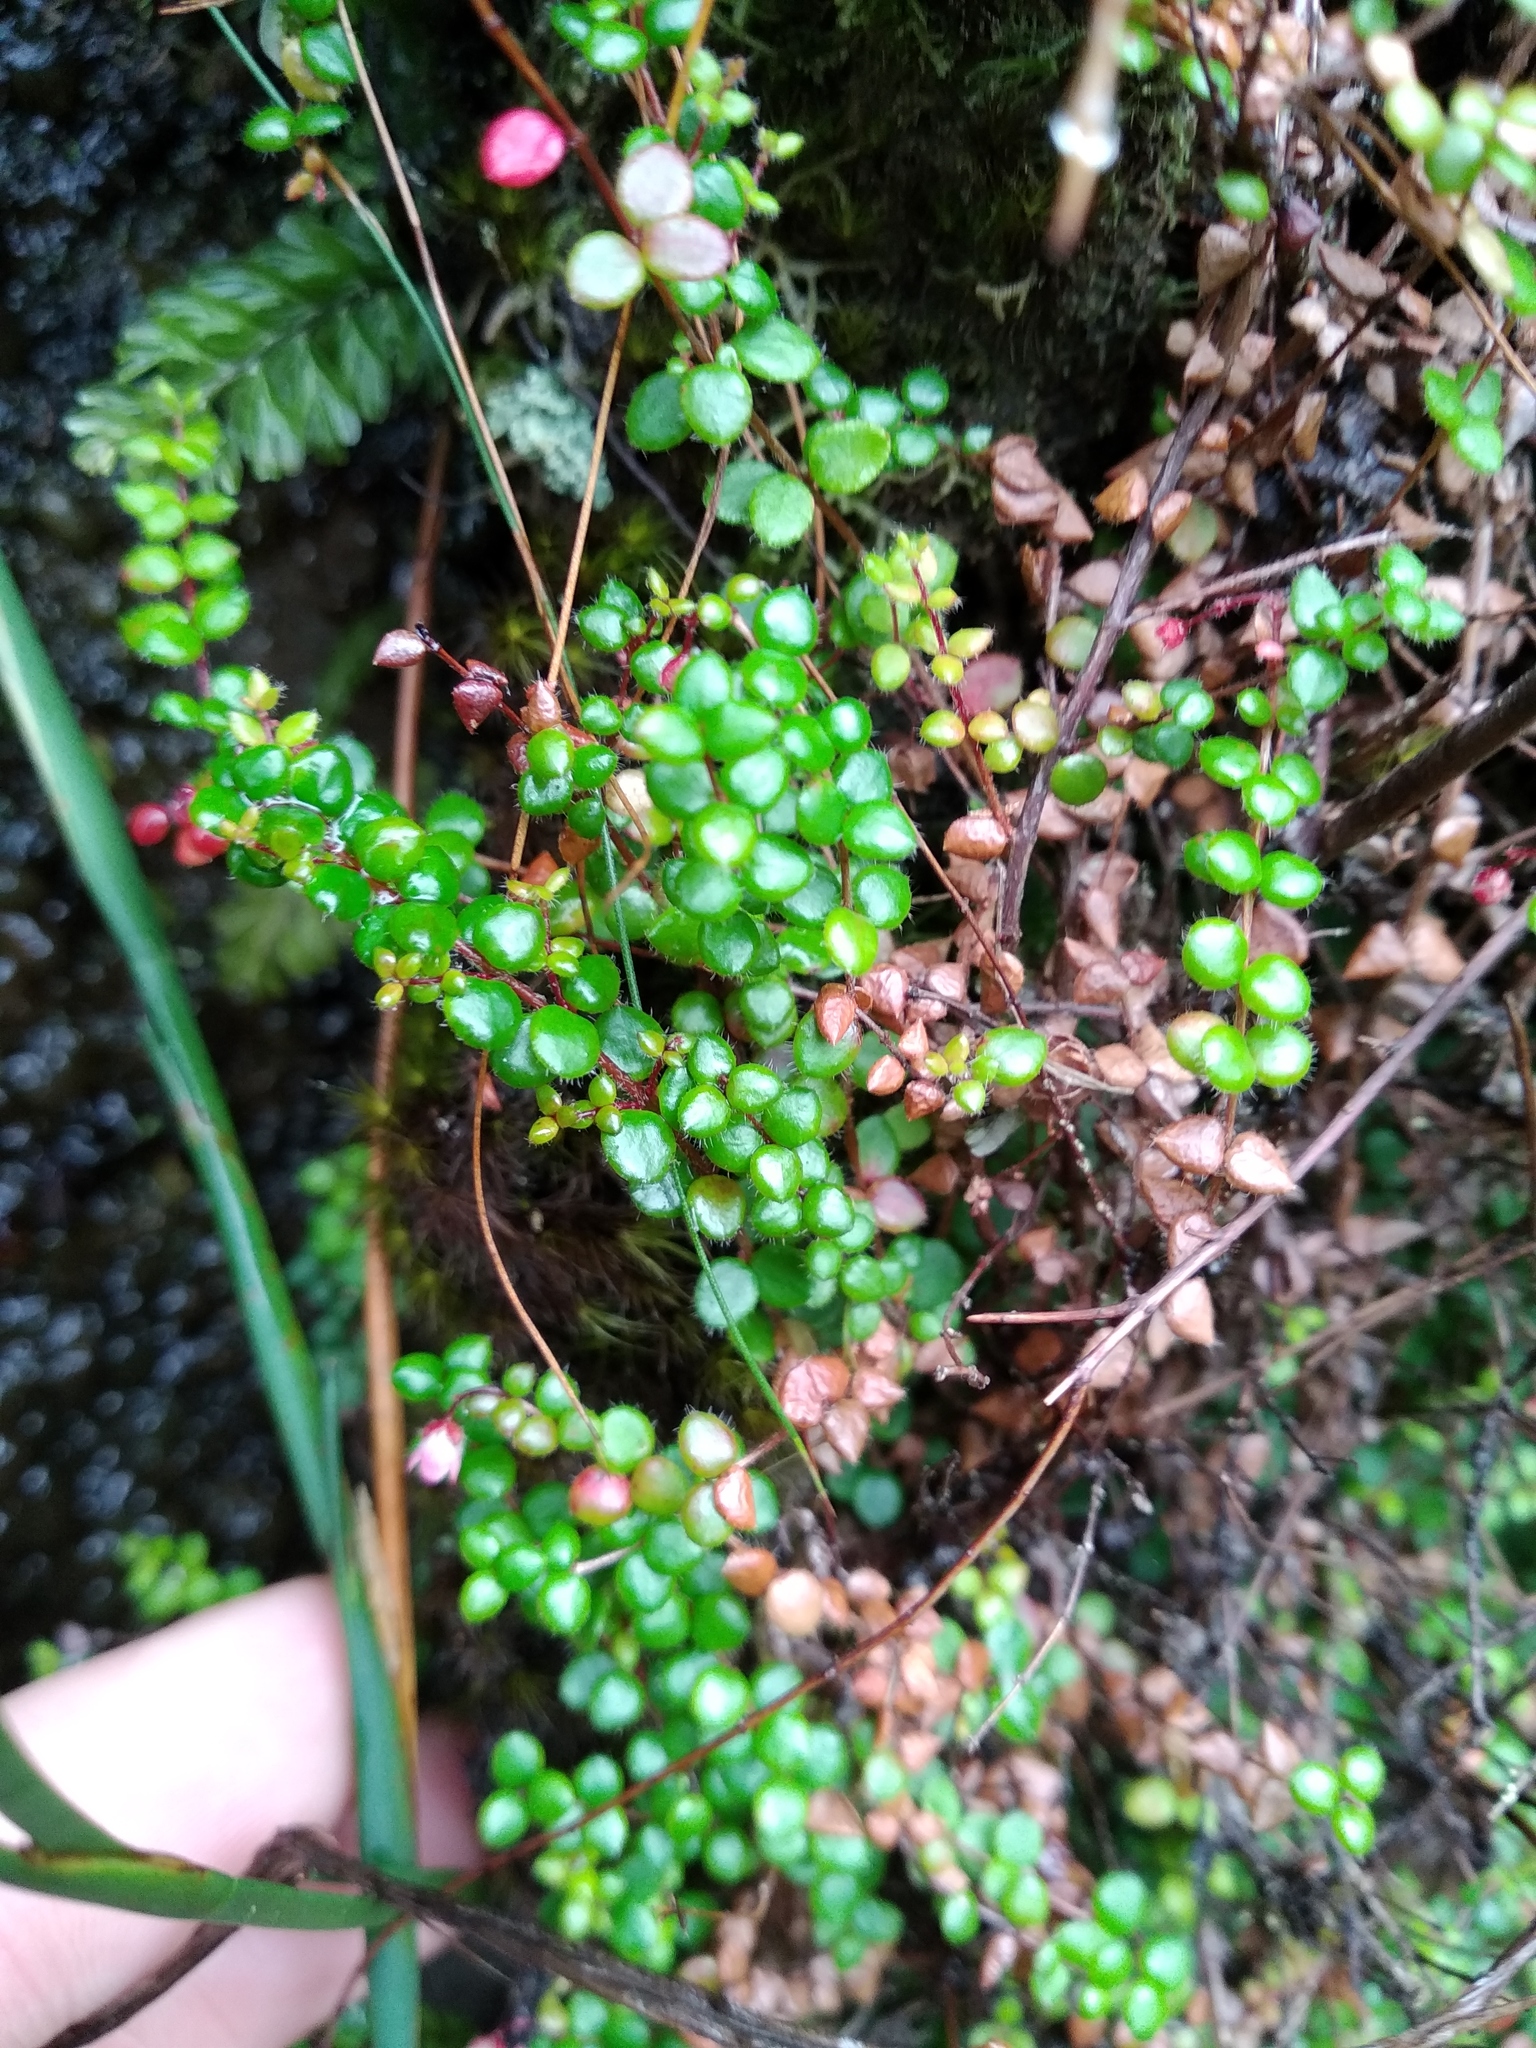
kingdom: Plantae
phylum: Tracheophyta
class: Magnoliopsida
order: Ericales
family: Ericaceae
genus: Erica
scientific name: Erica oxycoccifolia
